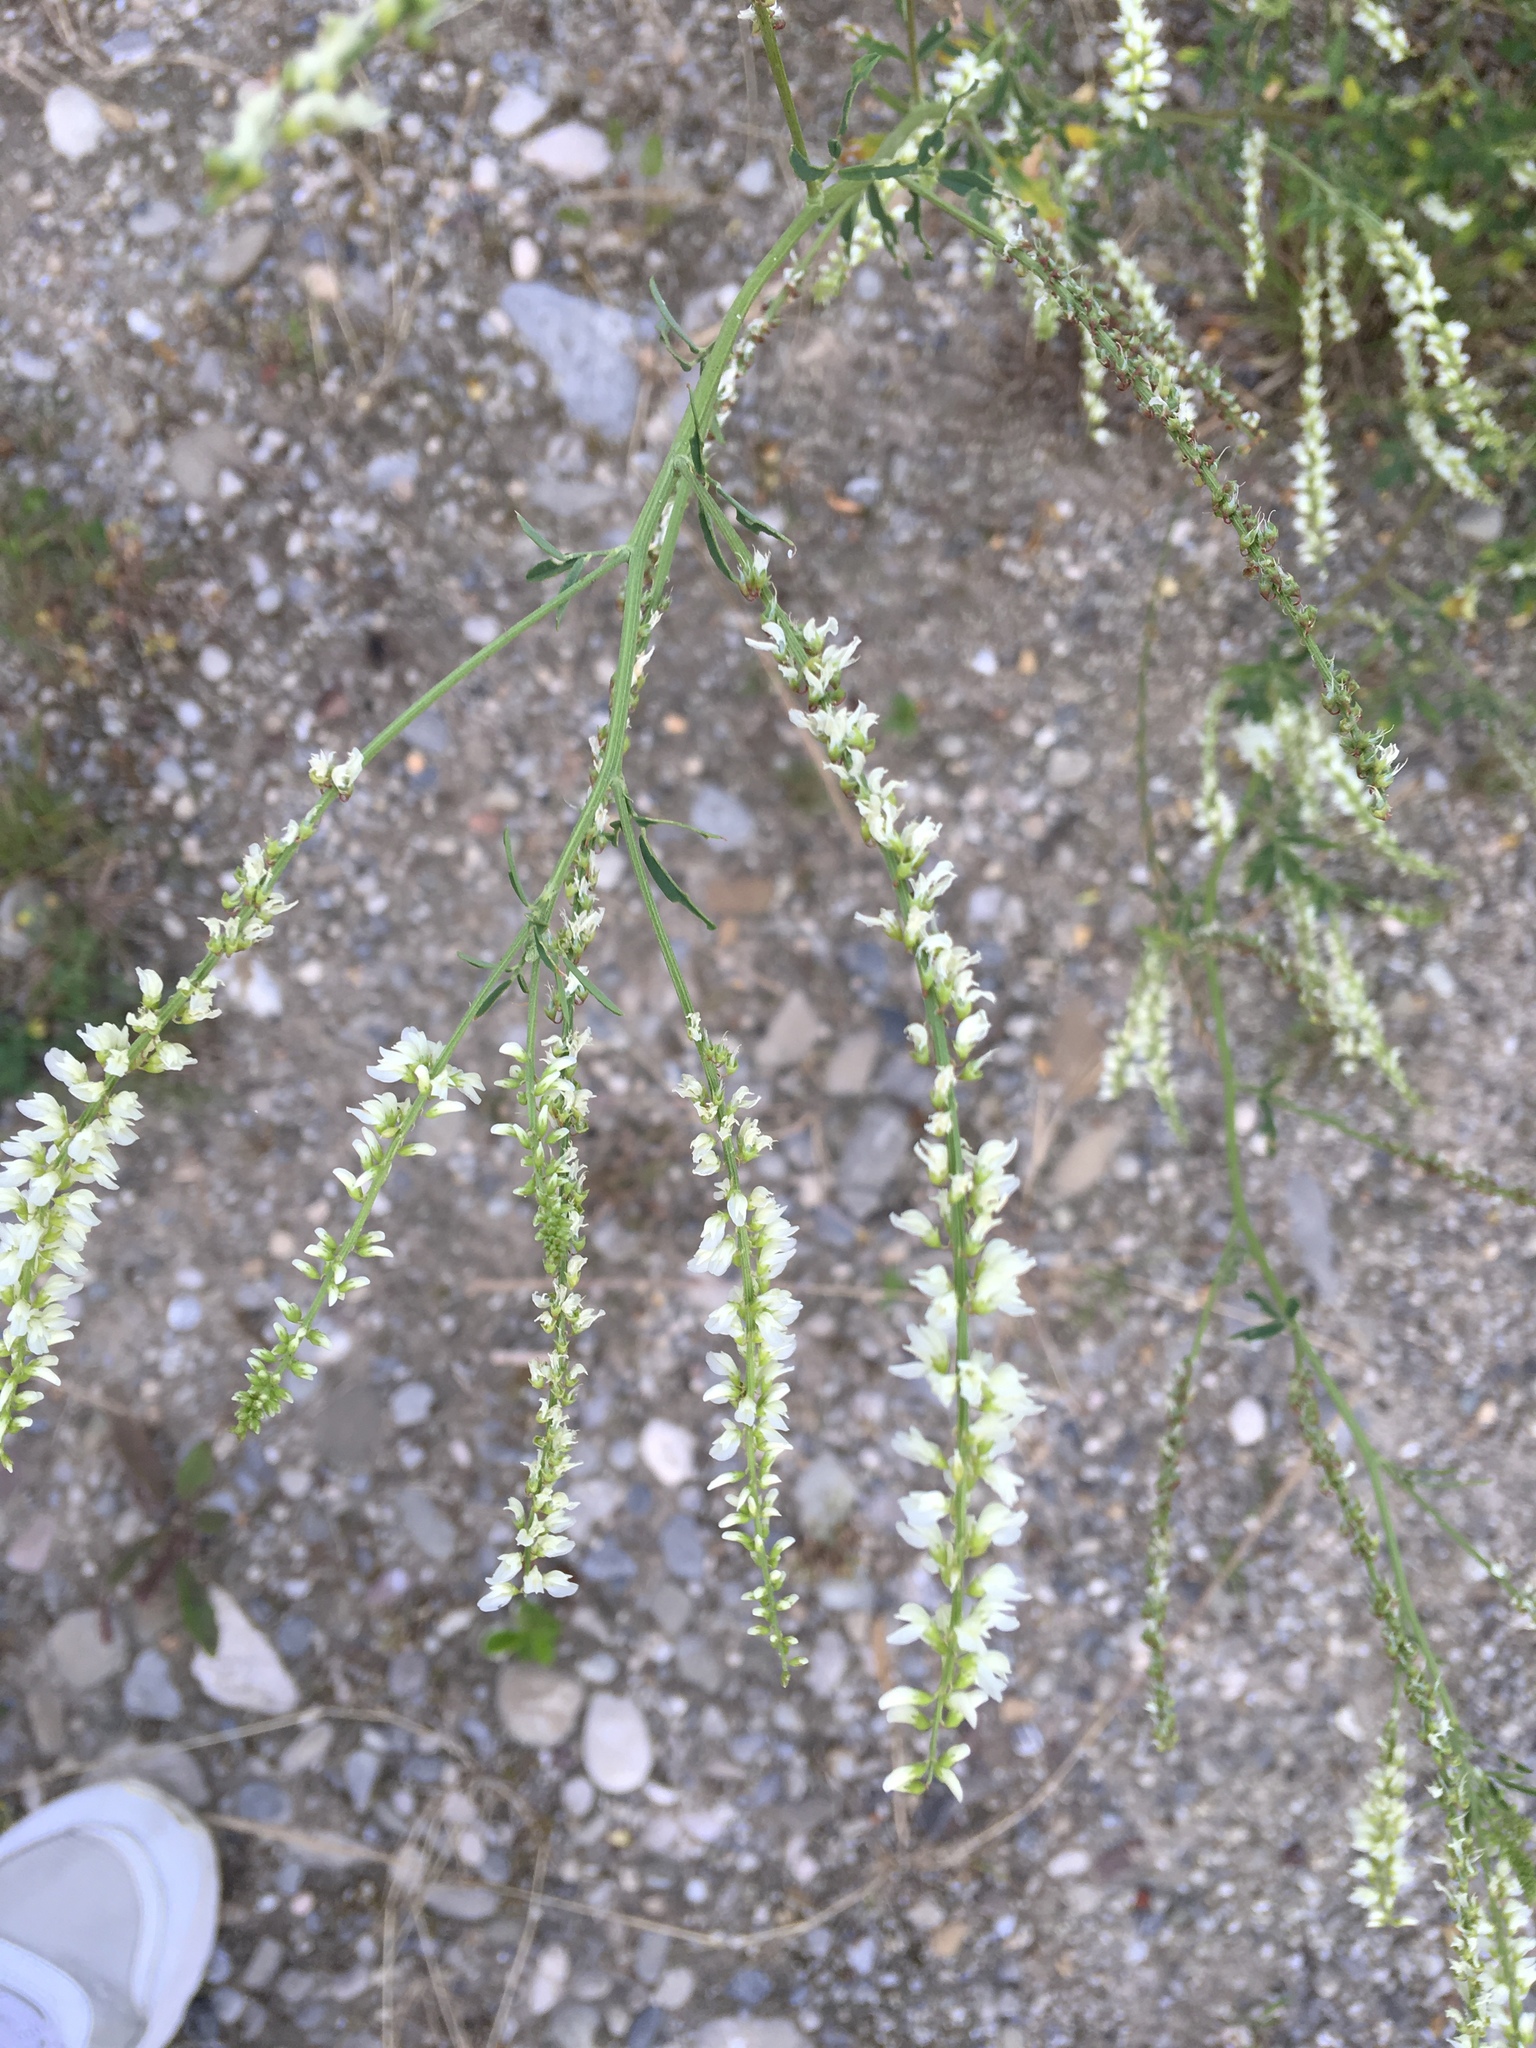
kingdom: Plantae
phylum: Tracheophyta
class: Magnoliopsida
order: Fabales
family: Fabaceae
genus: Melilotus
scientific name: Melilotus albus
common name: White melilot
